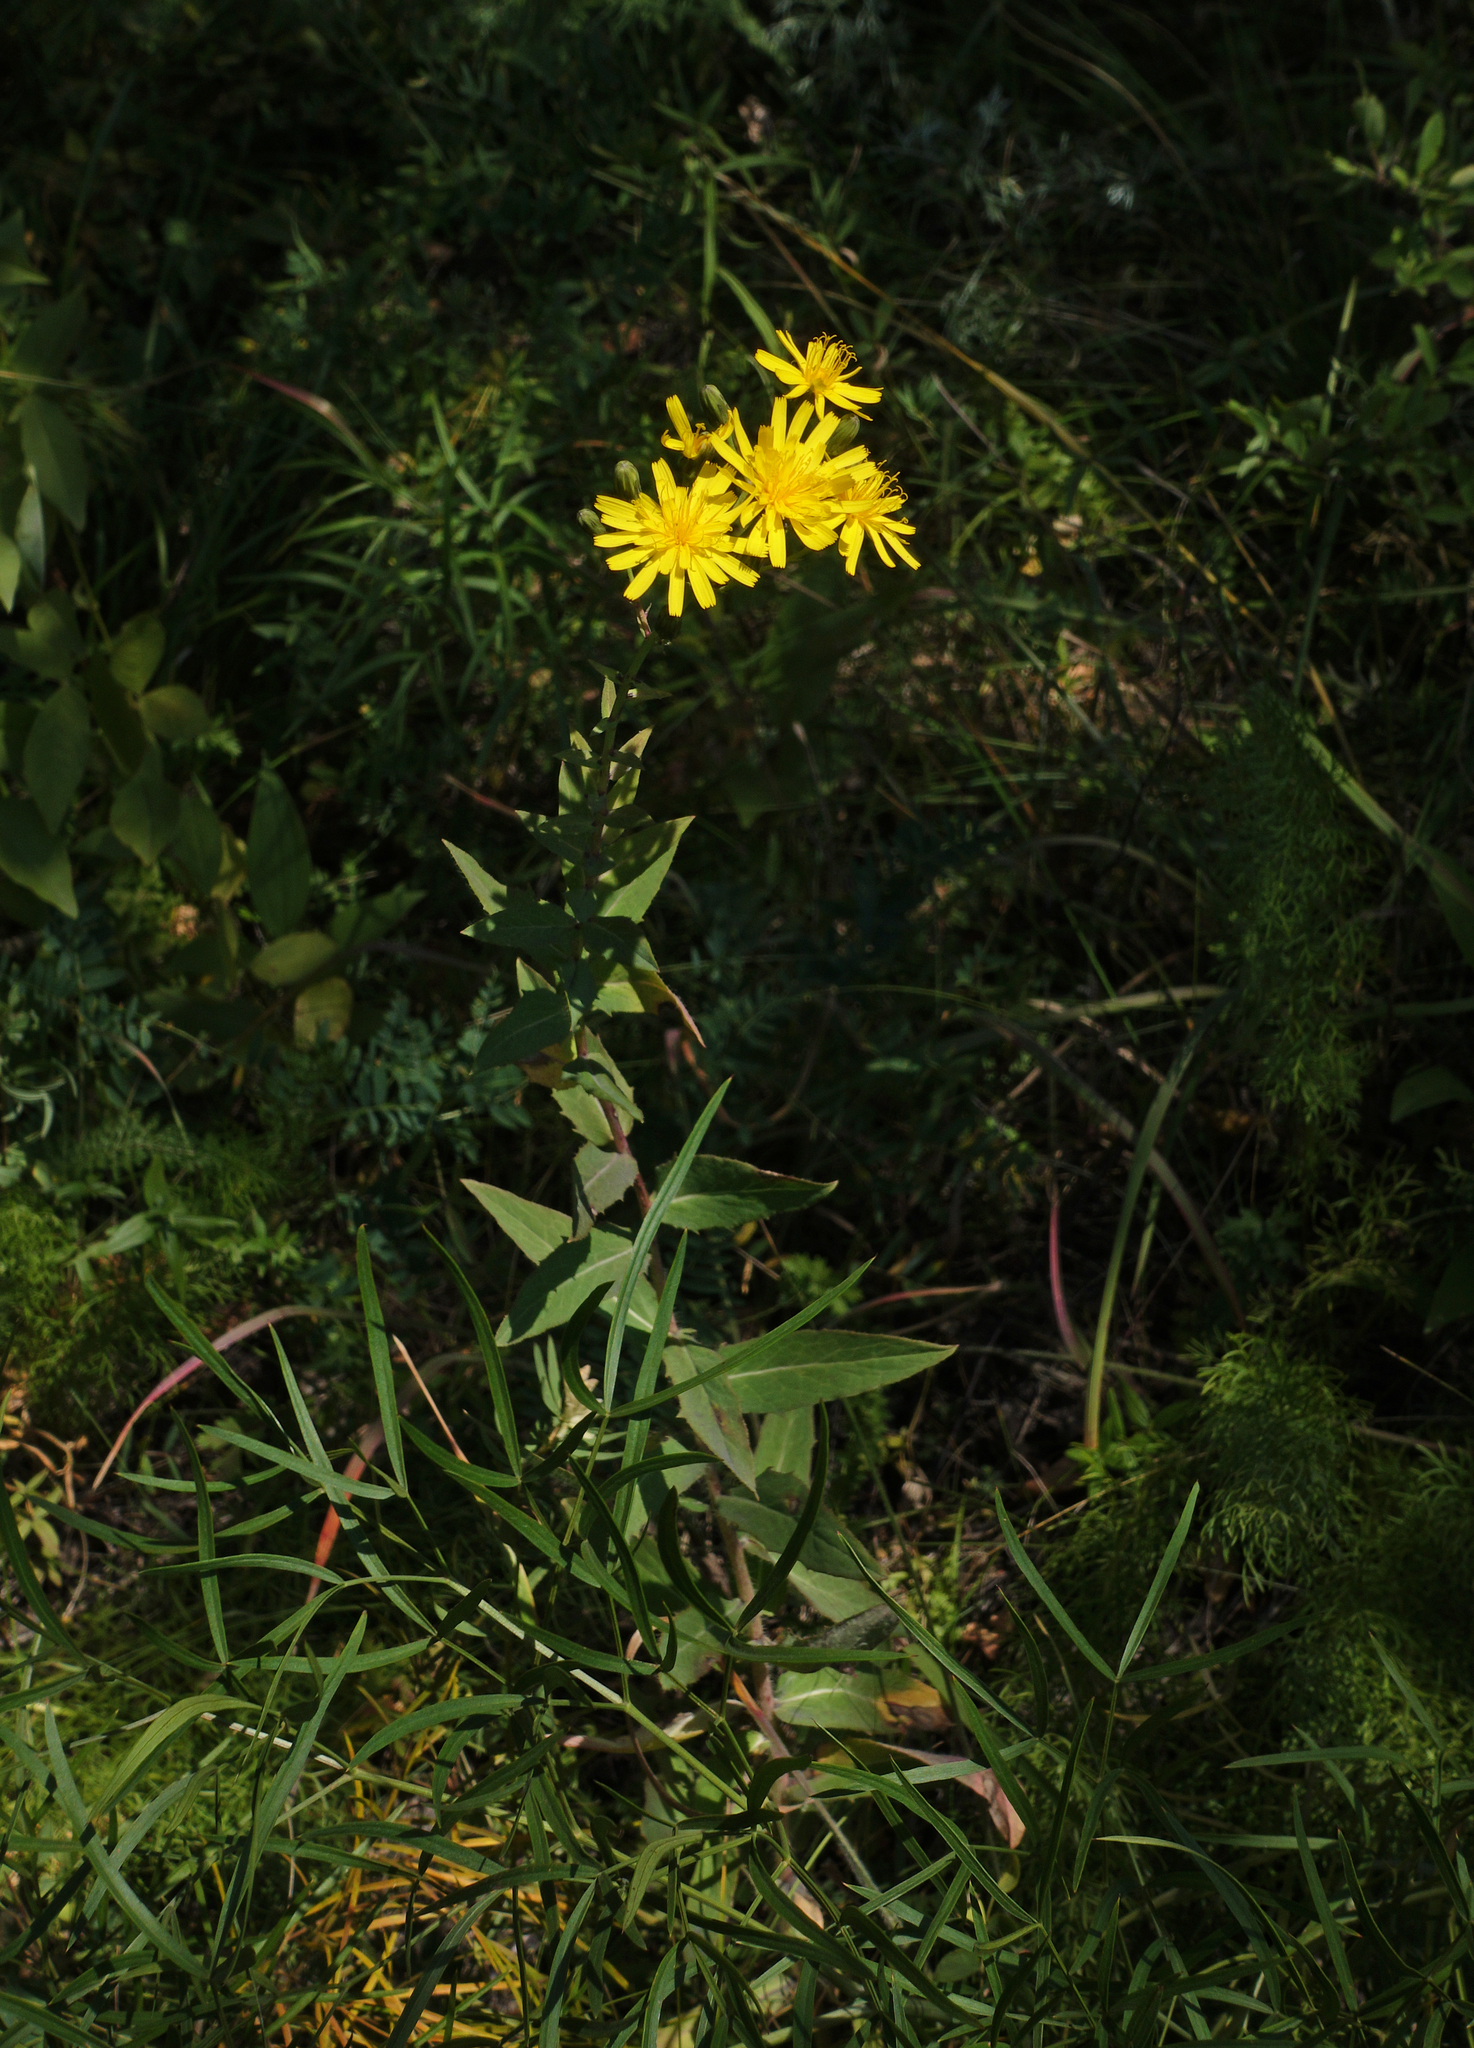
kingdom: Plantae
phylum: Tracheophyta
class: Magnoliopsida
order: Asterales
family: Asteraceae
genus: Hieracium
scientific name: Hieracium umbellatum
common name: Northern hawkweed
